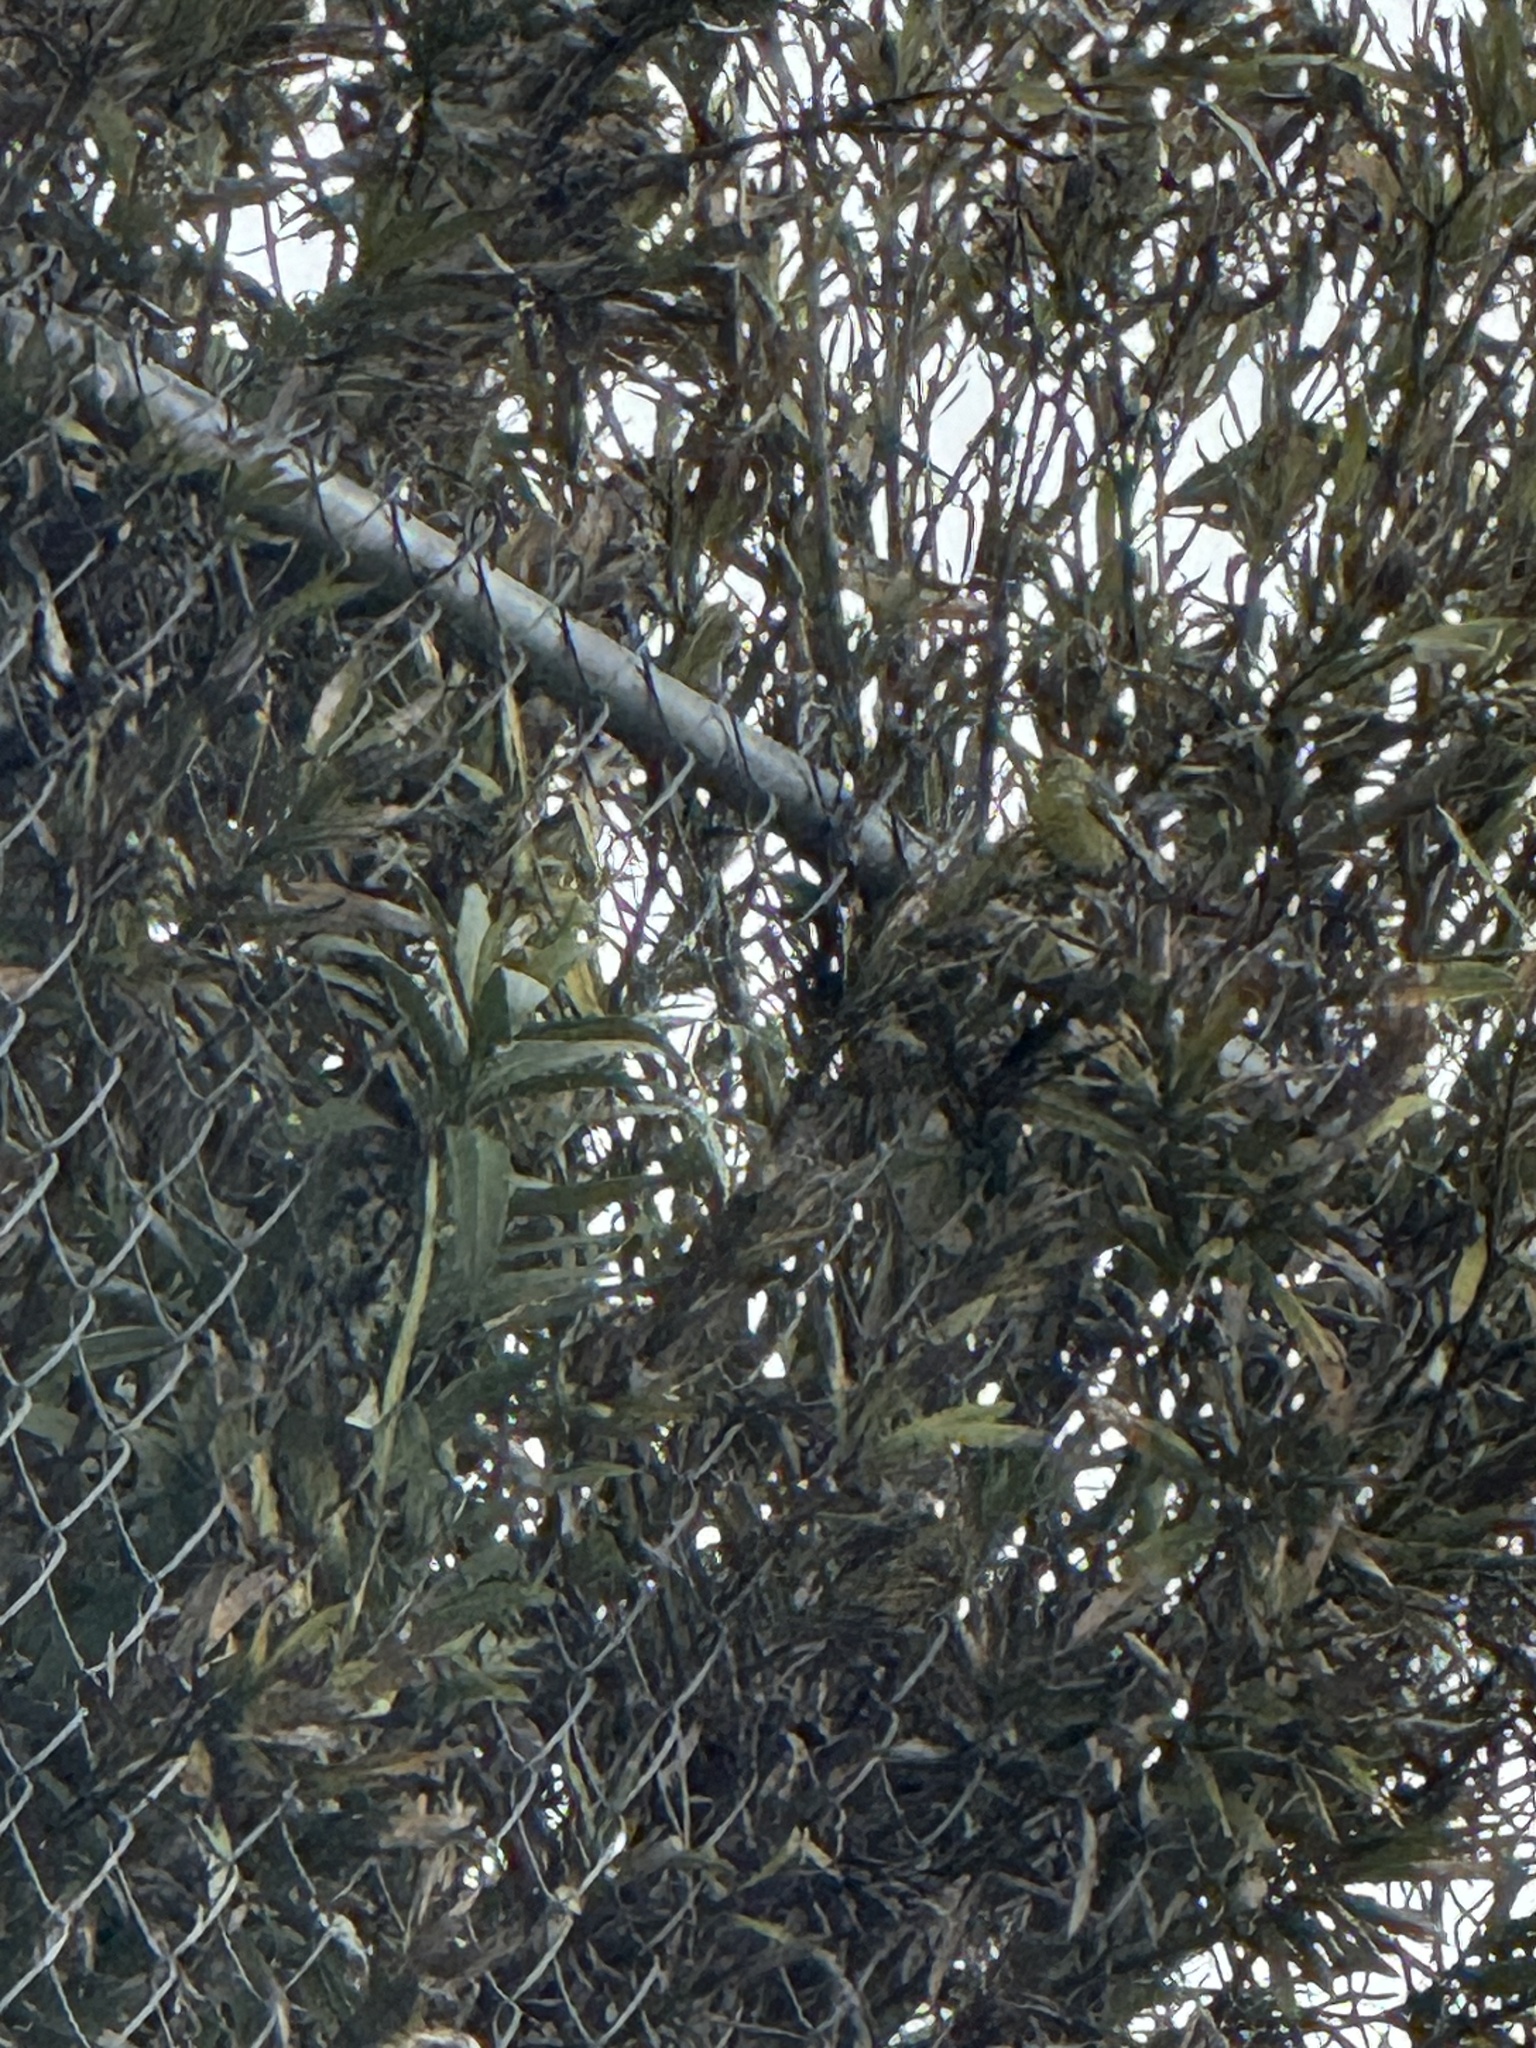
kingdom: Animalia
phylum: Chordata
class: Aves
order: Passeriformes
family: Fringillidae
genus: Spinus
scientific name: Spinus psaltria
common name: Lesser goldfinch
